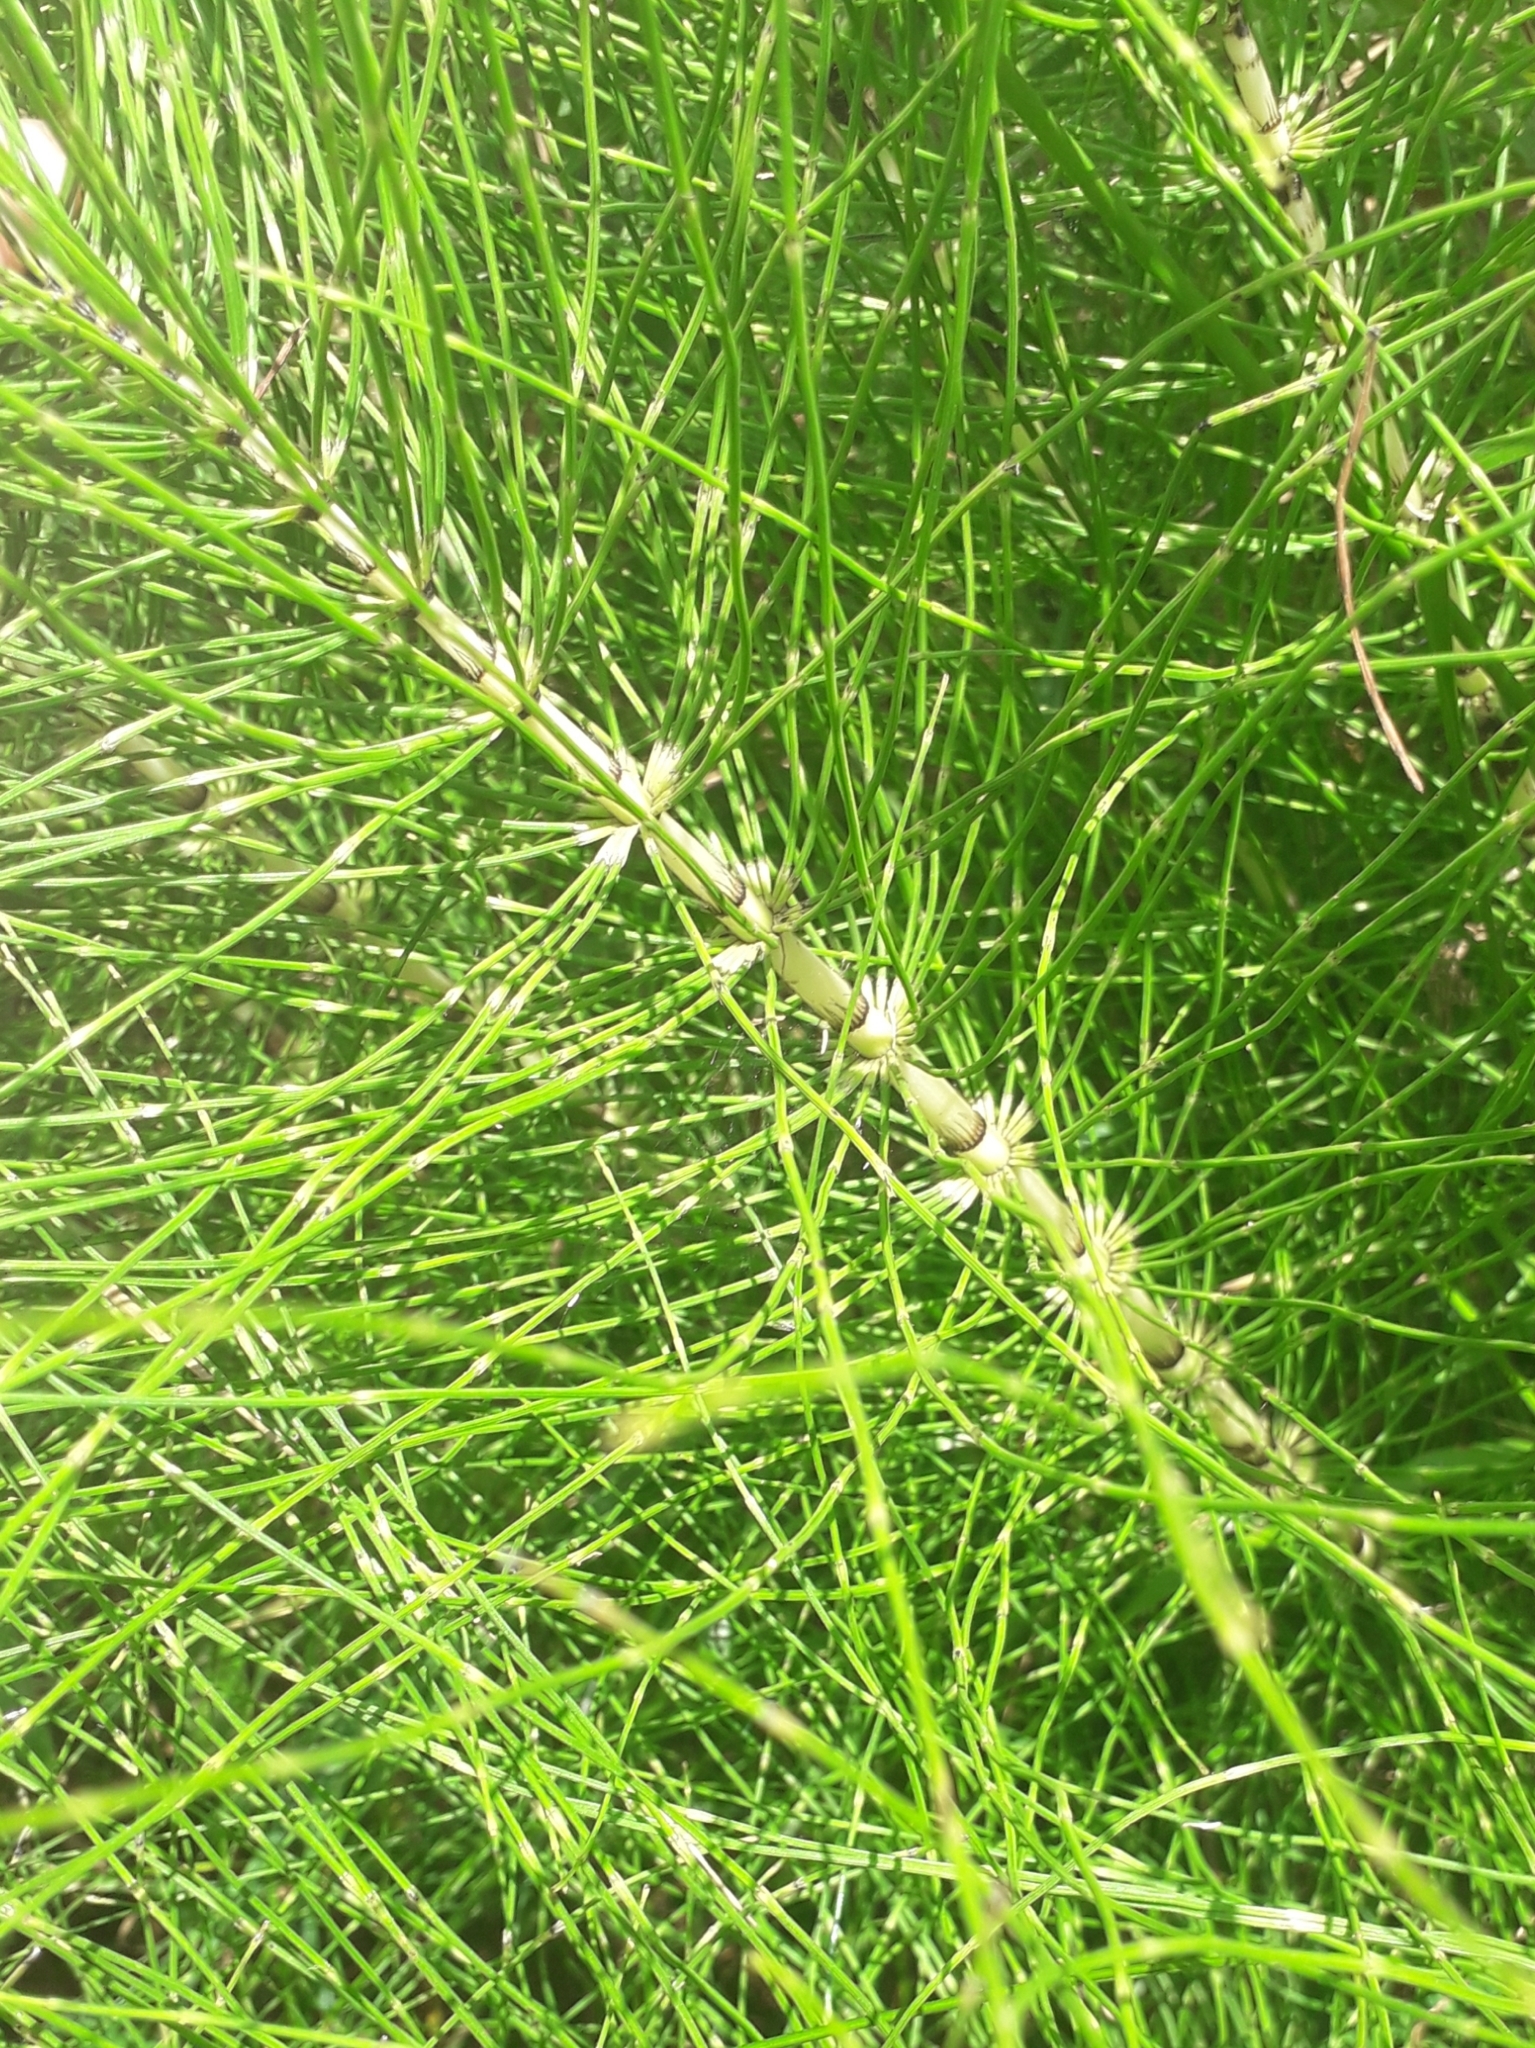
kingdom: Plantae
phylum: Tracheophyta
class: Polypodiopsida
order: Equisetales
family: Equisetaceae
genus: Equisetum
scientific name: Equisetum telmateia
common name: Great horsetail
